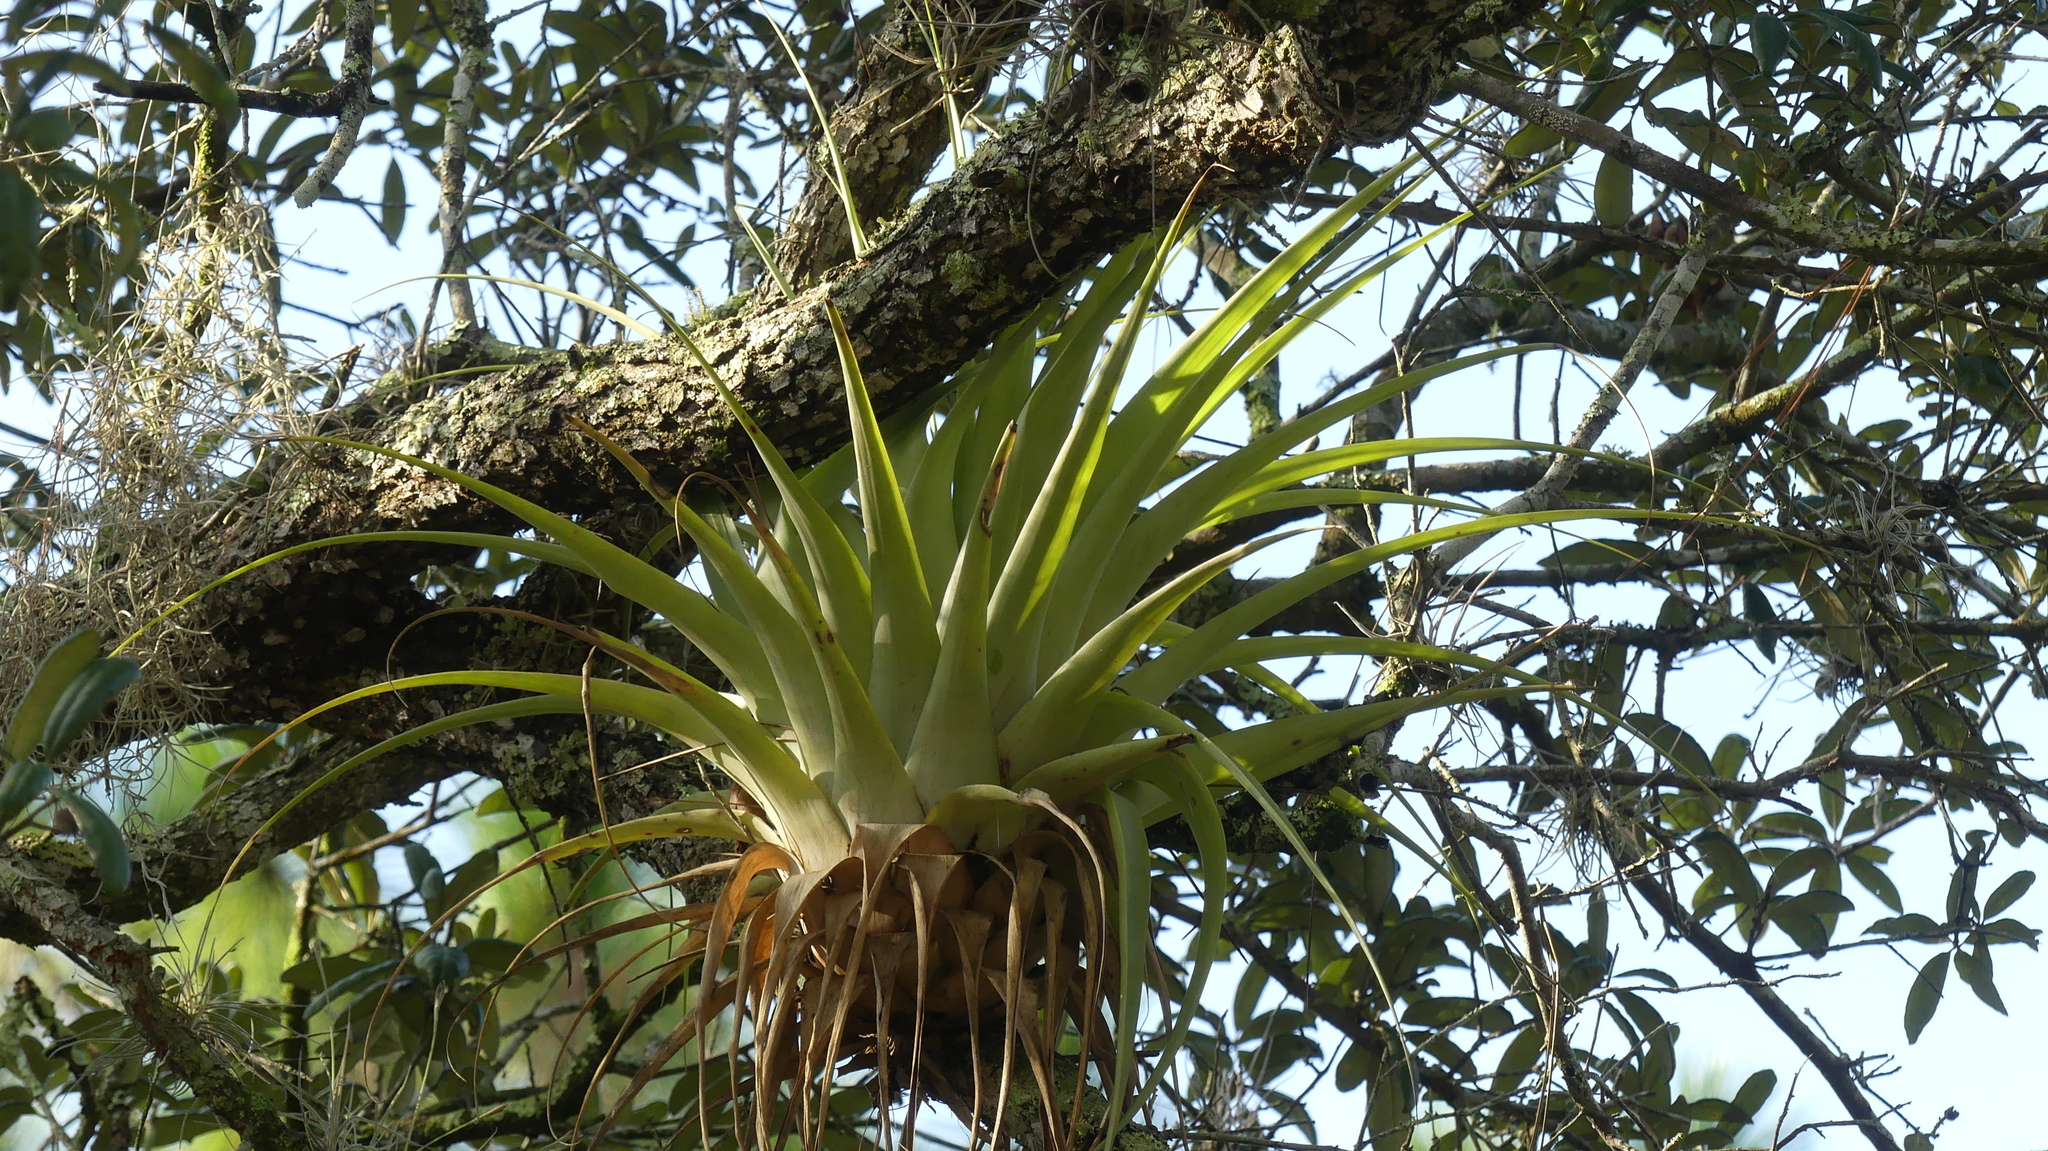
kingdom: Plantae
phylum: Tracheophyta
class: Liliopsida
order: Poales
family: Bromeliaceae
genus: Tillandsia
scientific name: Tillandsia utriculata
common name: Wild pine
